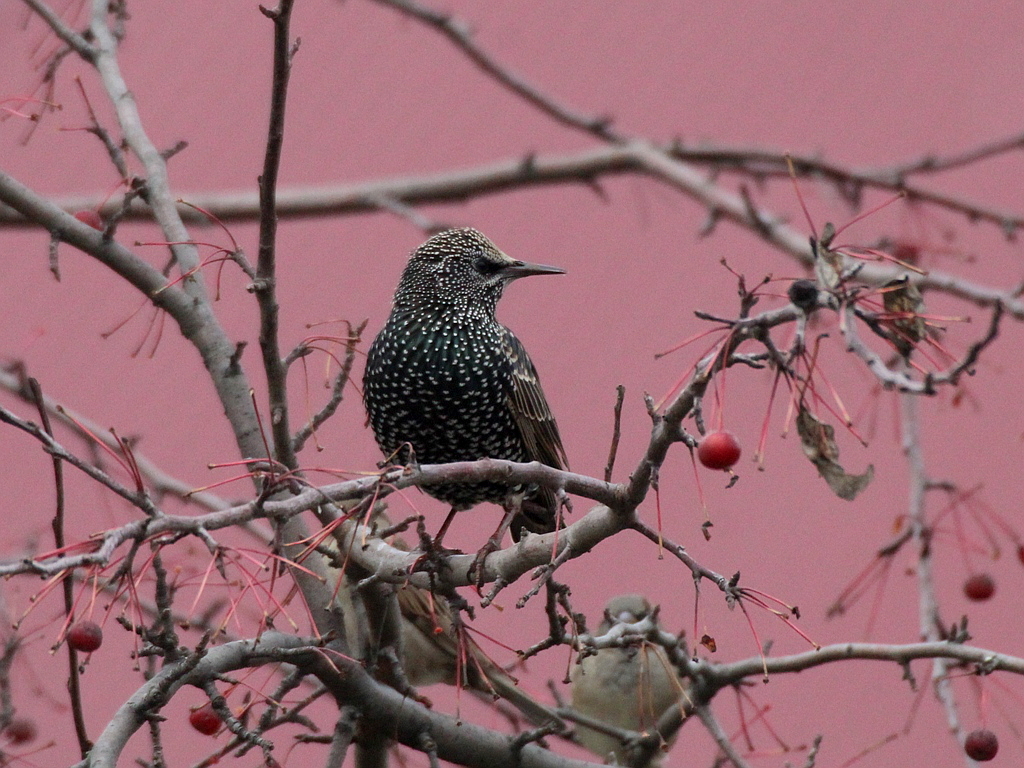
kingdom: Animalia
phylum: Chordata
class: Aves
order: Passeriformes
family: Sturnidae
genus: Sturnus
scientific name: Sturnus vulgaris
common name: Common starling
